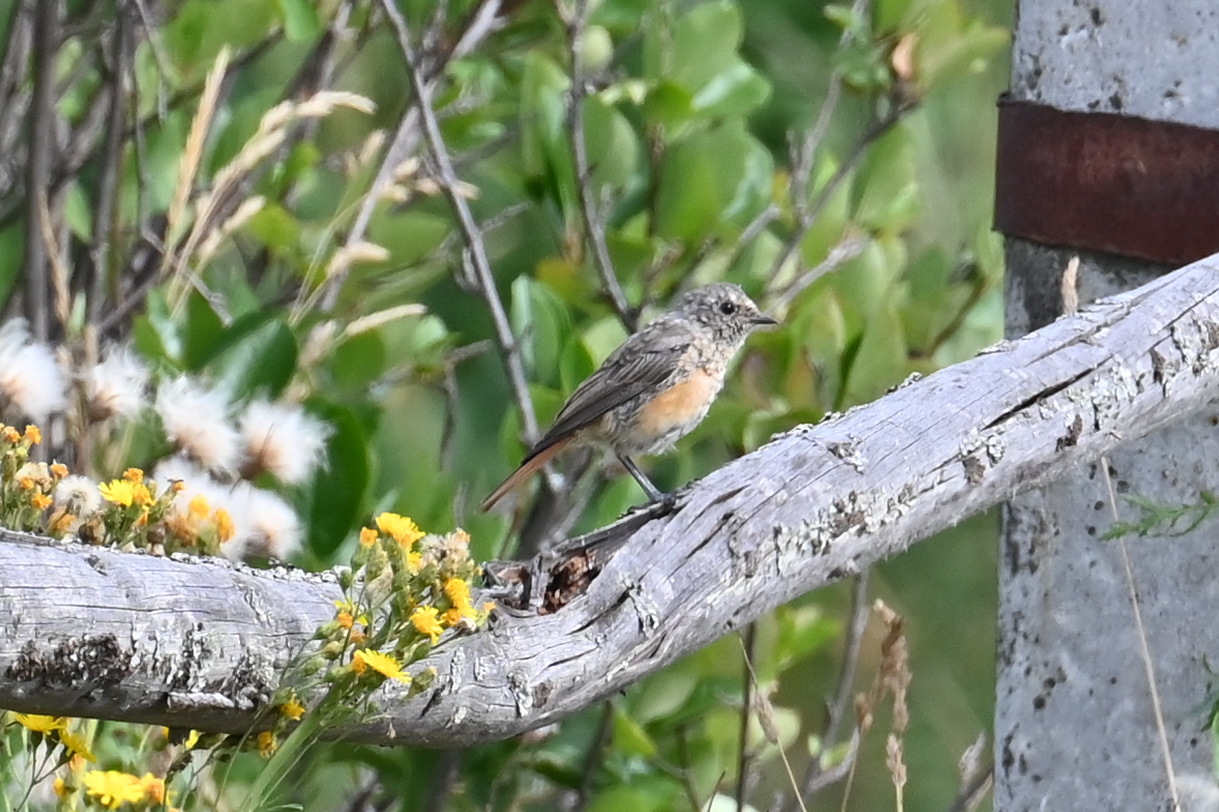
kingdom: Animalia
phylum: Chordata
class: Aves
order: Passeriformes
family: Muscicapidae
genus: Phoenicurus
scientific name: Phoenicurus phoenicurus
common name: Common redstart
